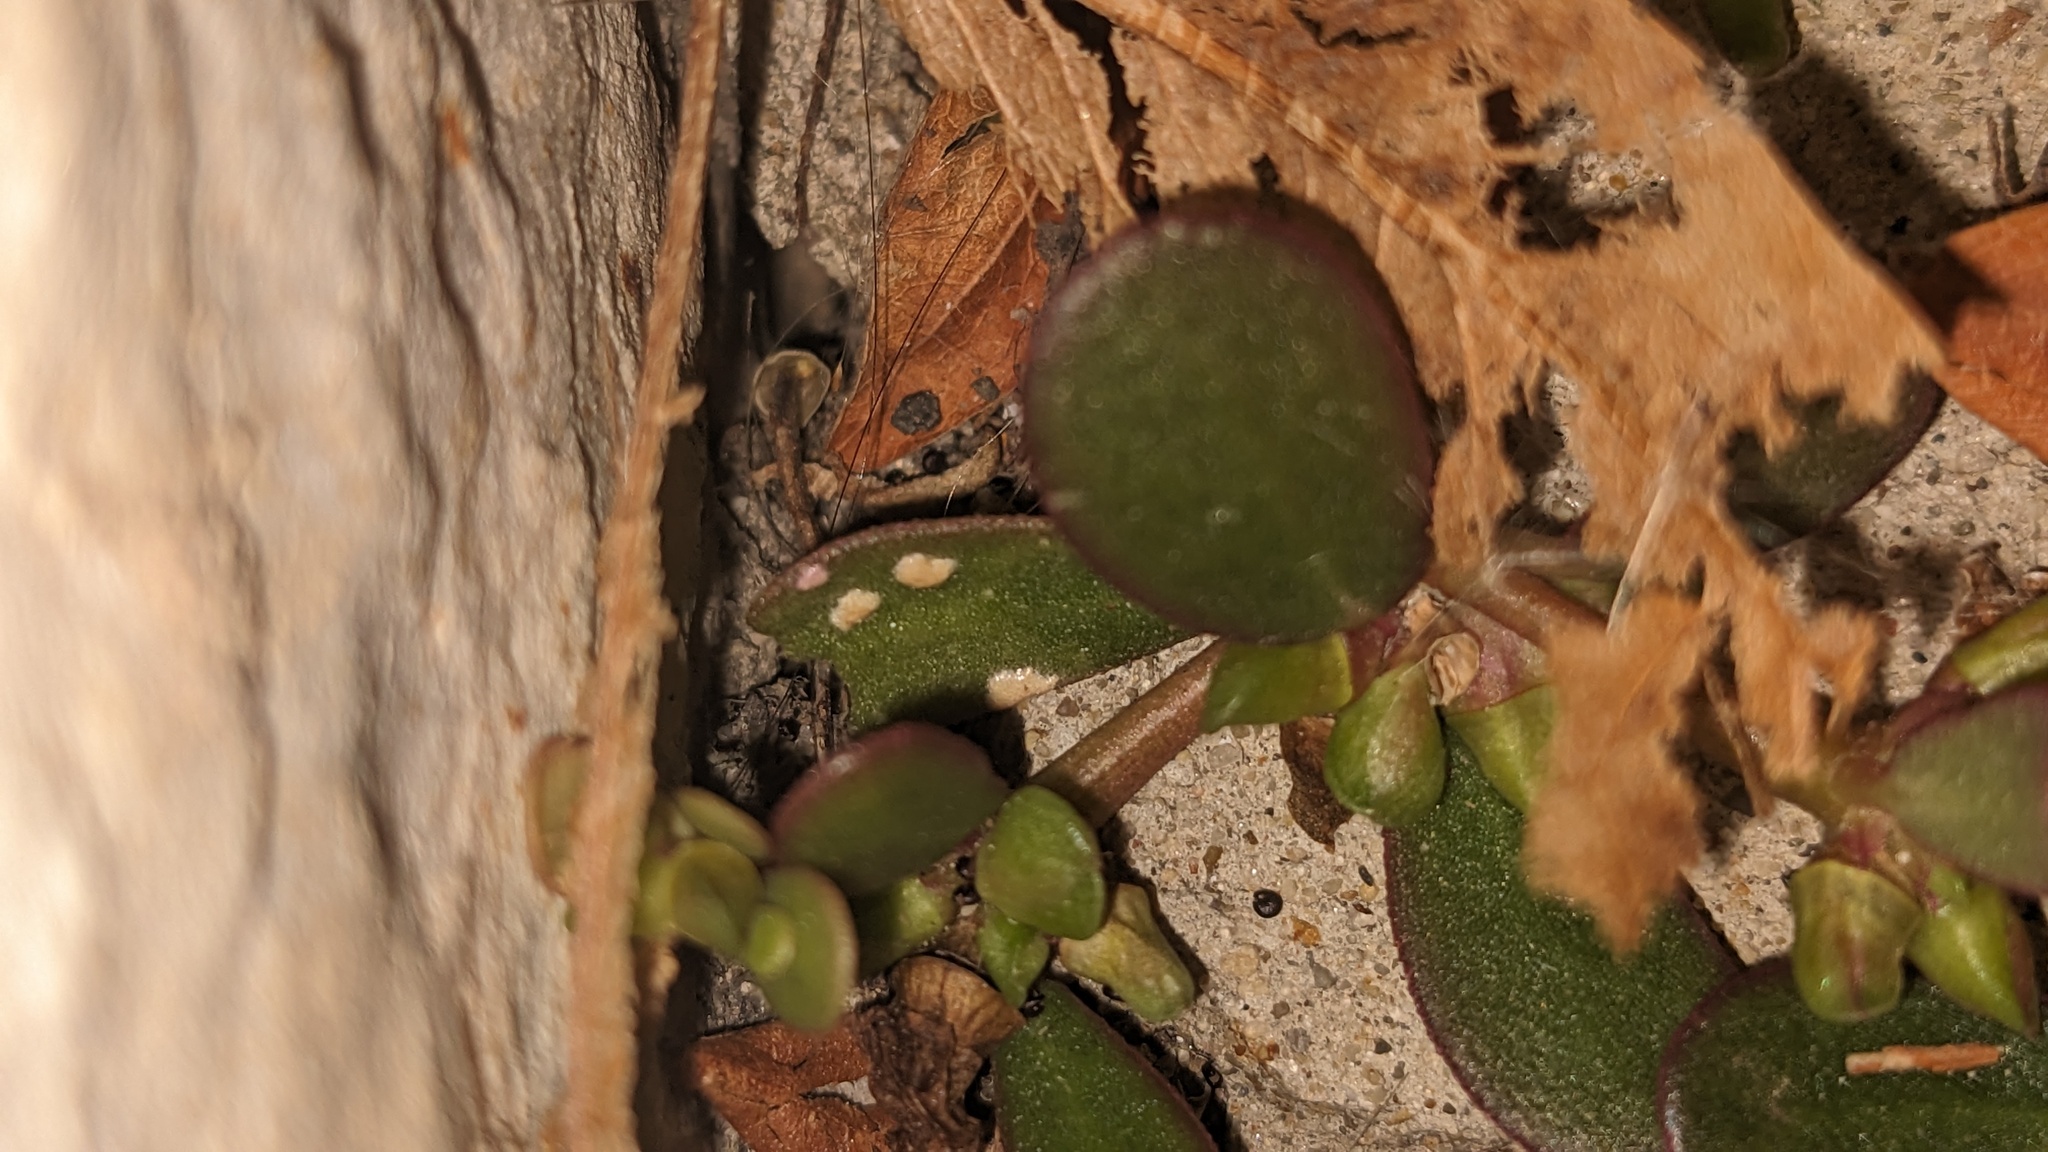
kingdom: Chromista
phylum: Oomycota
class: Peronosporea
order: Albuginales
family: Albuginaceae
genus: Wilsoniana
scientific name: Wilsoniana portulacae
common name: Purslane white rust
